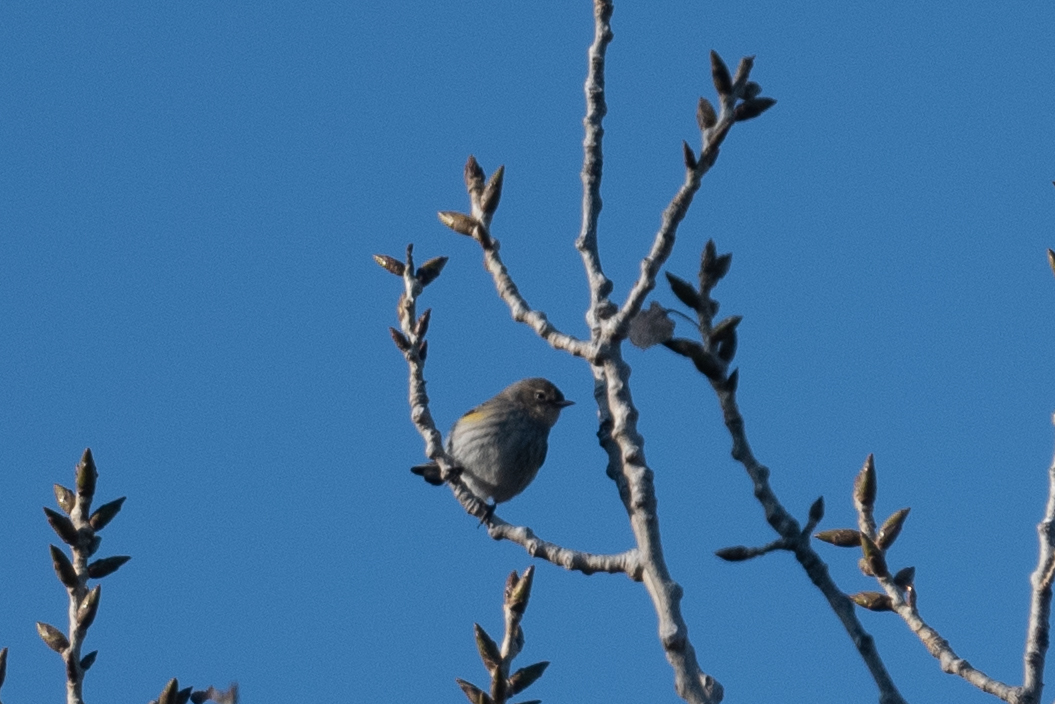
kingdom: Animalia
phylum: Chordata
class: Aves
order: Passeriformes
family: Parulidae
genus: Setophaga
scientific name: Setophaga coronata
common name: Myrtle warbler
